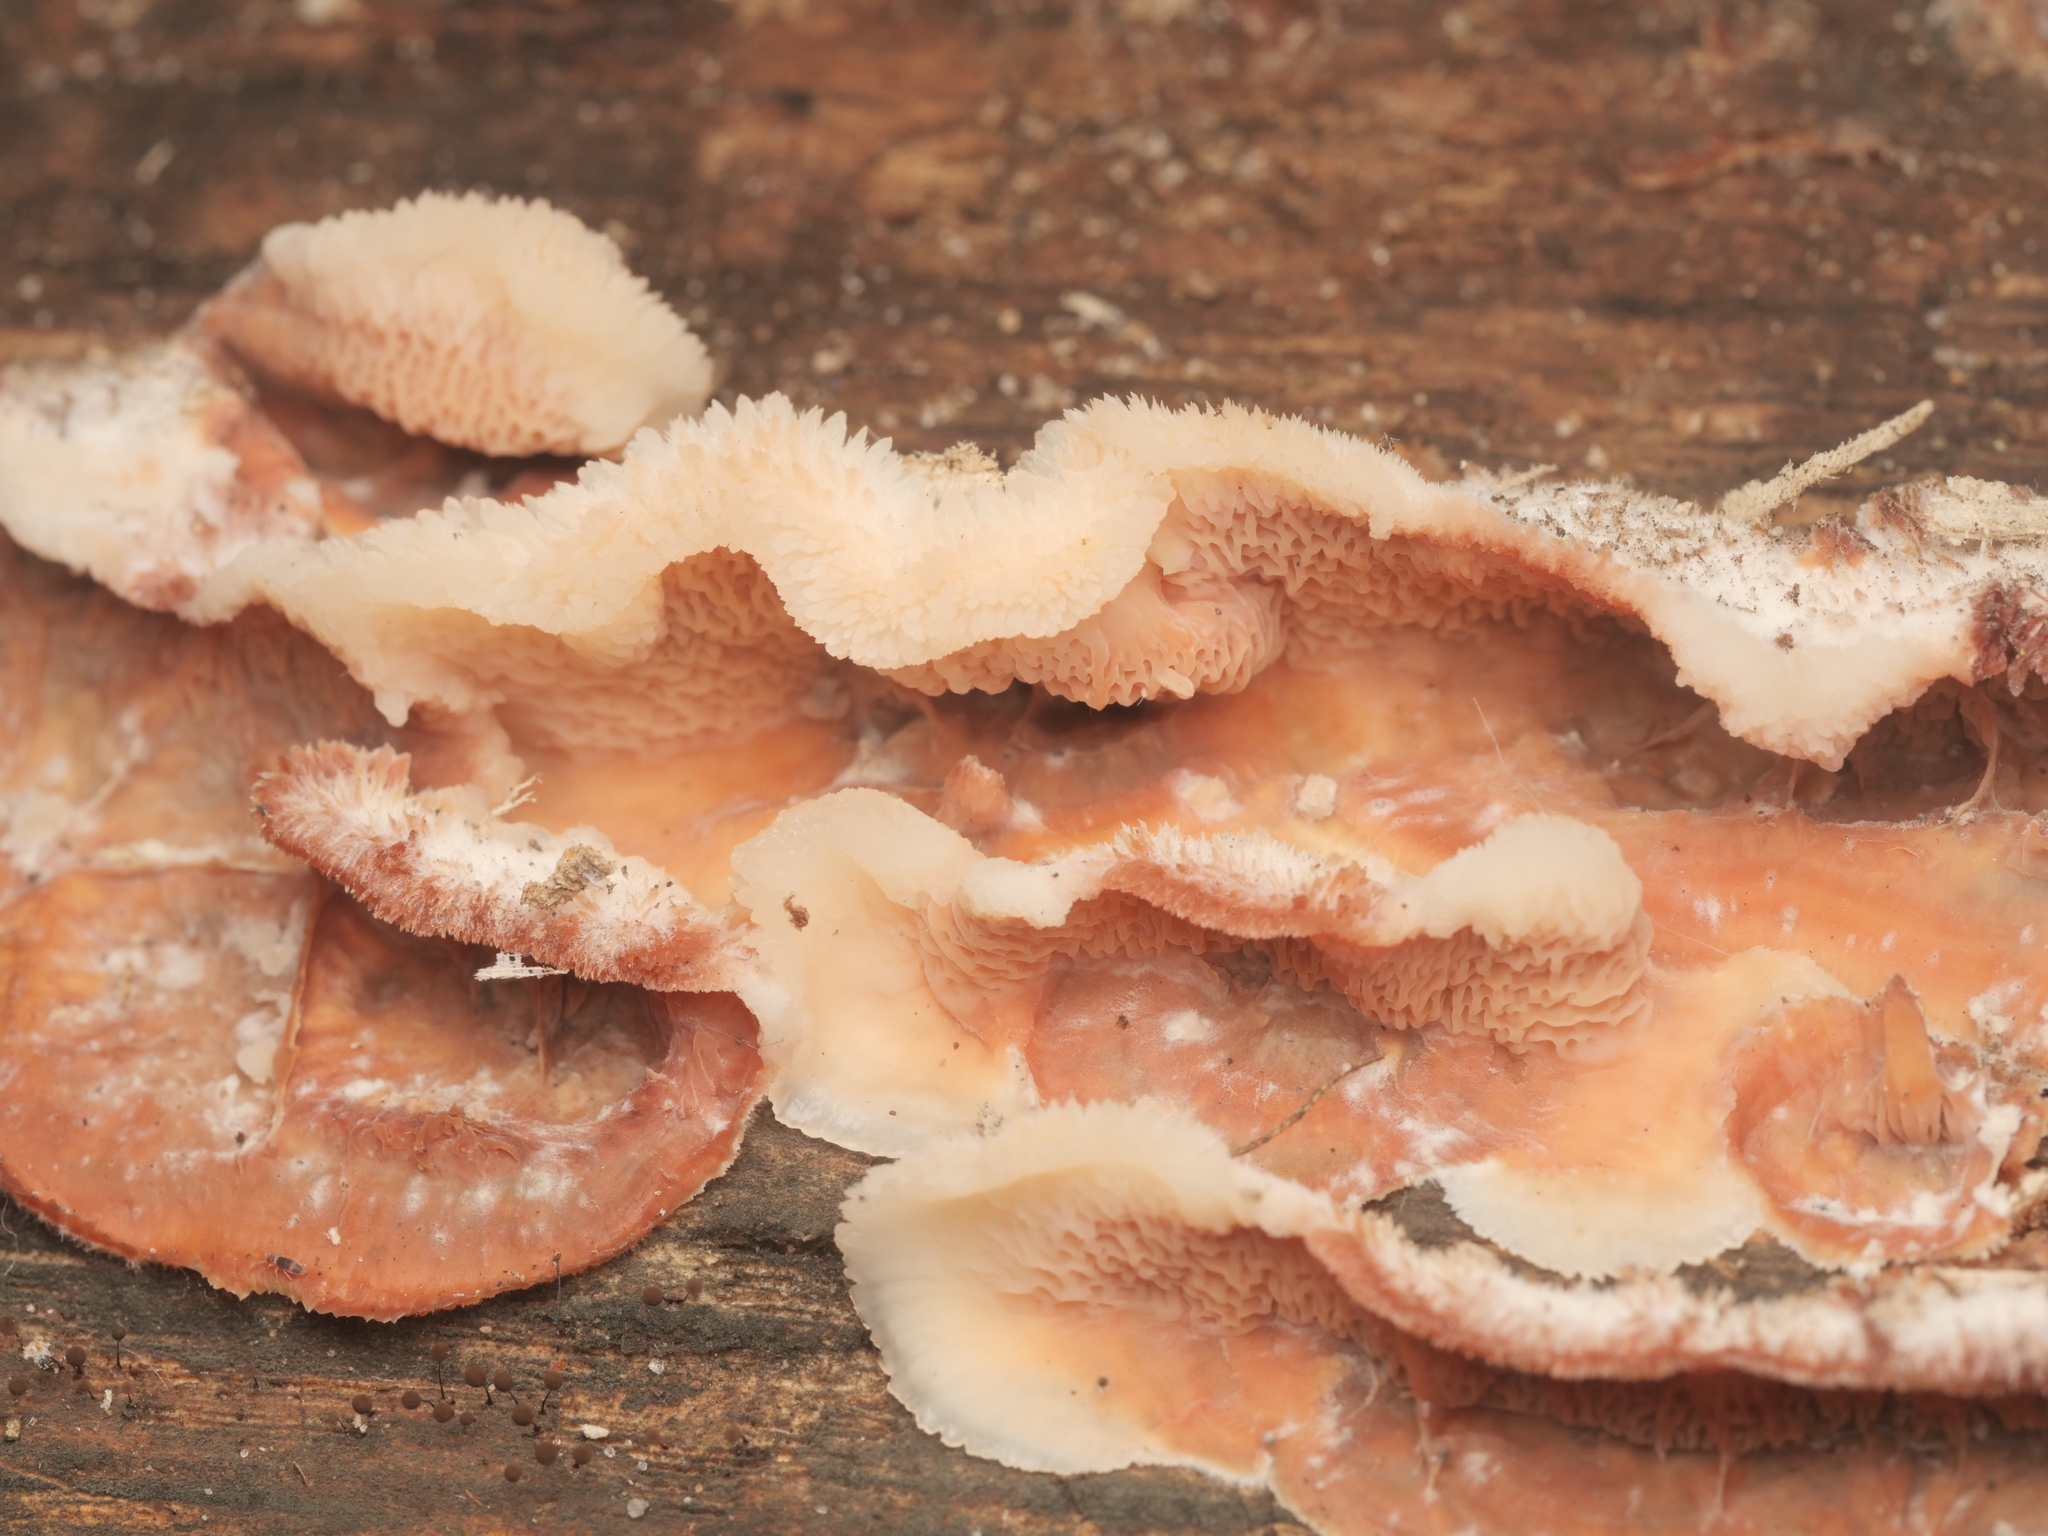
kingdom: Fungi
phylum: Basidiomycota
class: Agaricomycetes
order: Polyporales
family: Meruliaceae
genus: Phlebia
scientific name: Phlebia tremellosa
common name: Jelly rot
